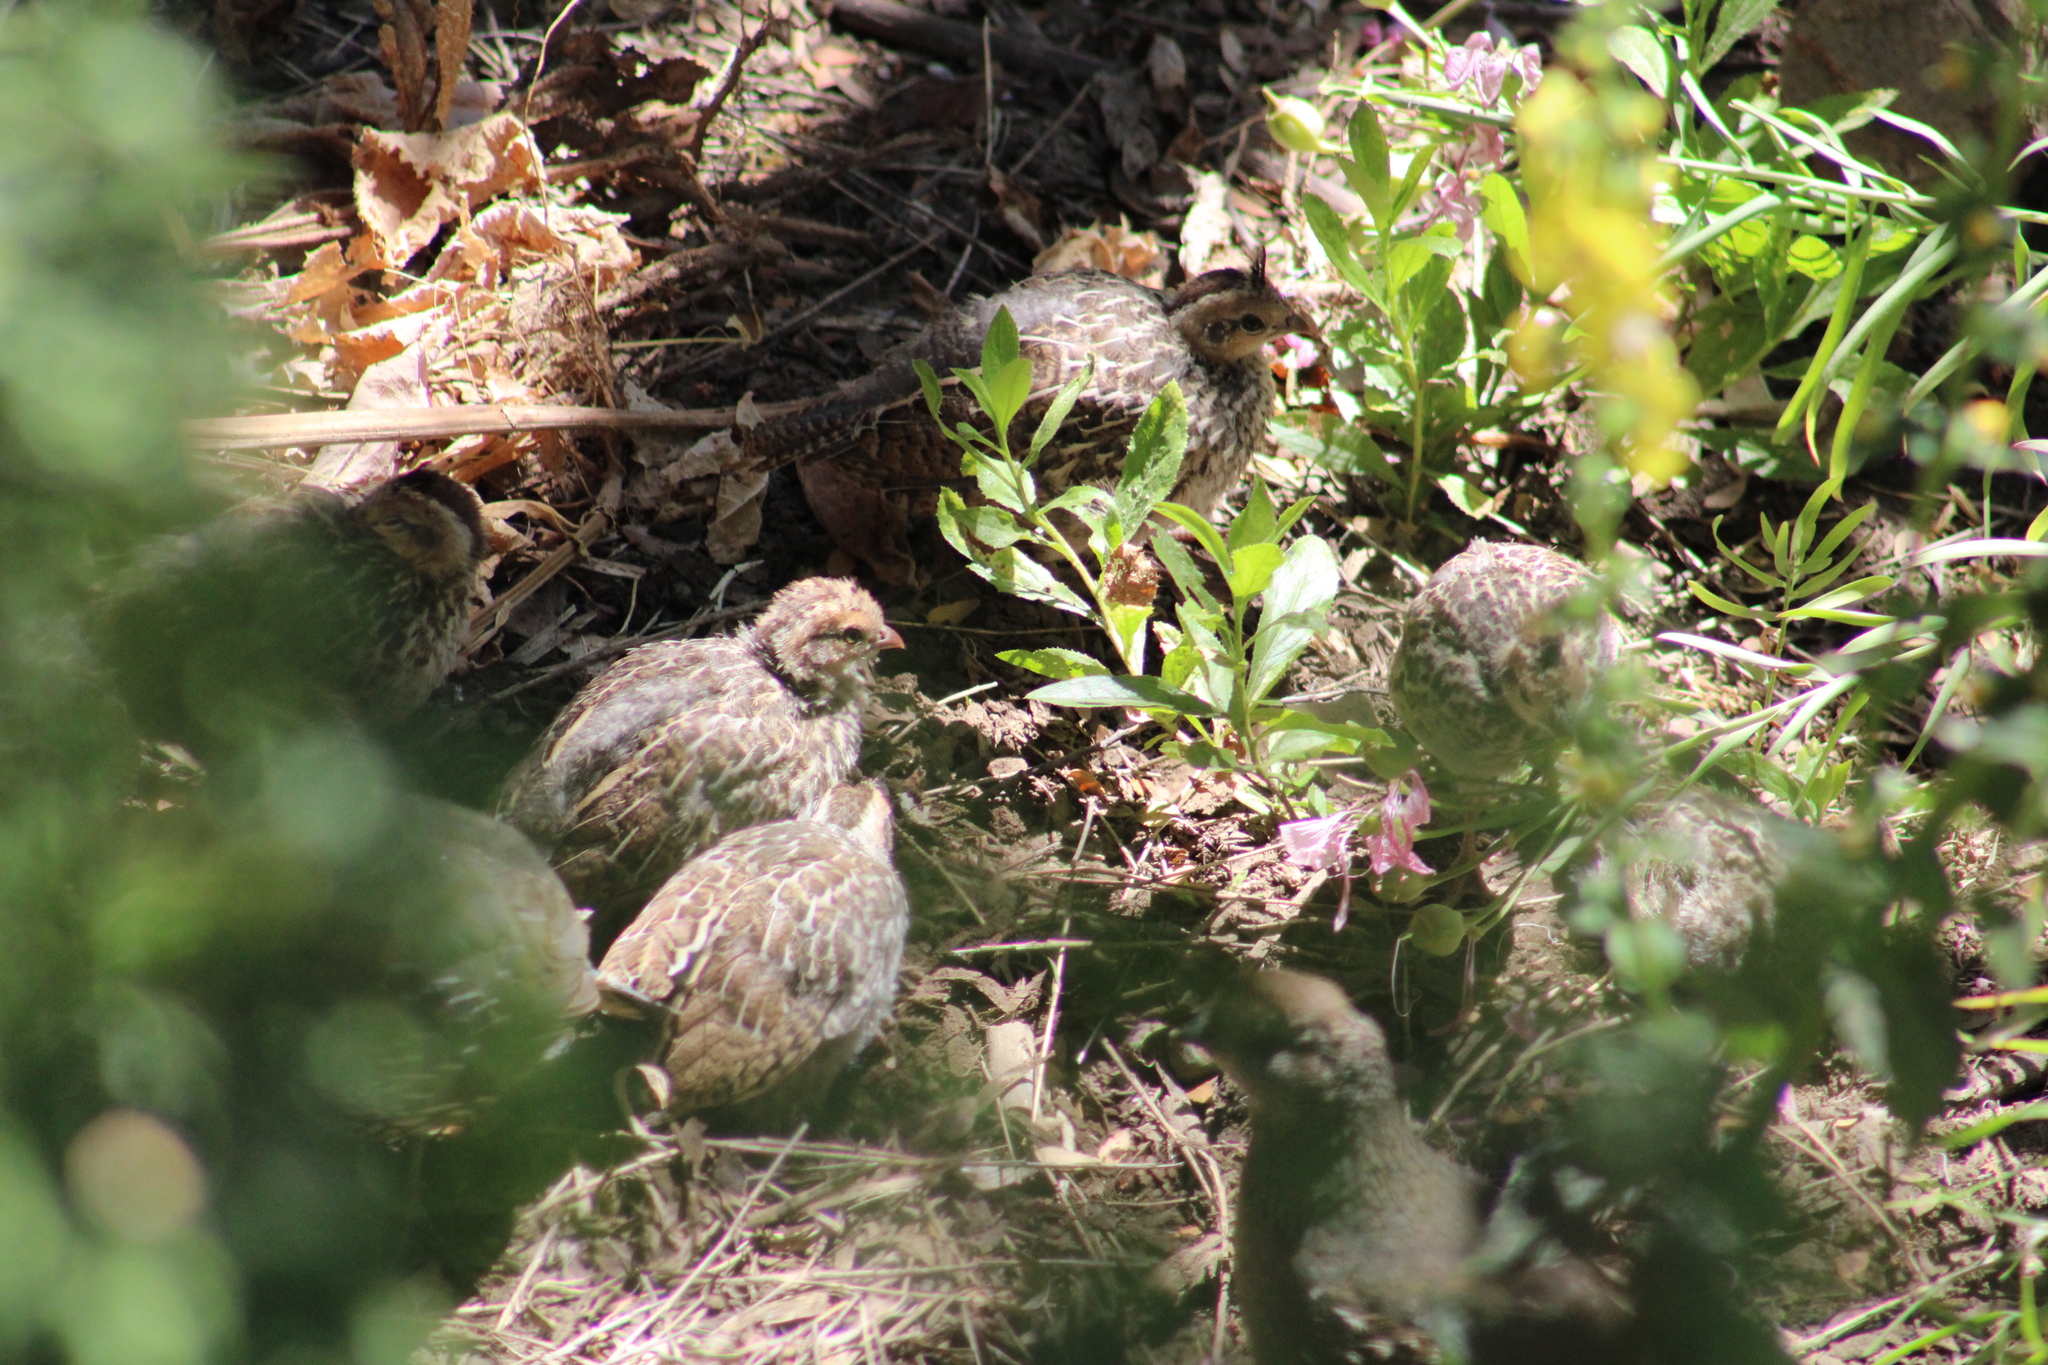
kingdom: Animalia
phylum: Chordata
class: Aves
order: Galliformes
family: Odontophoridae
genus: Callipepla
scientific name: Callipepla californica
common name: California quail
